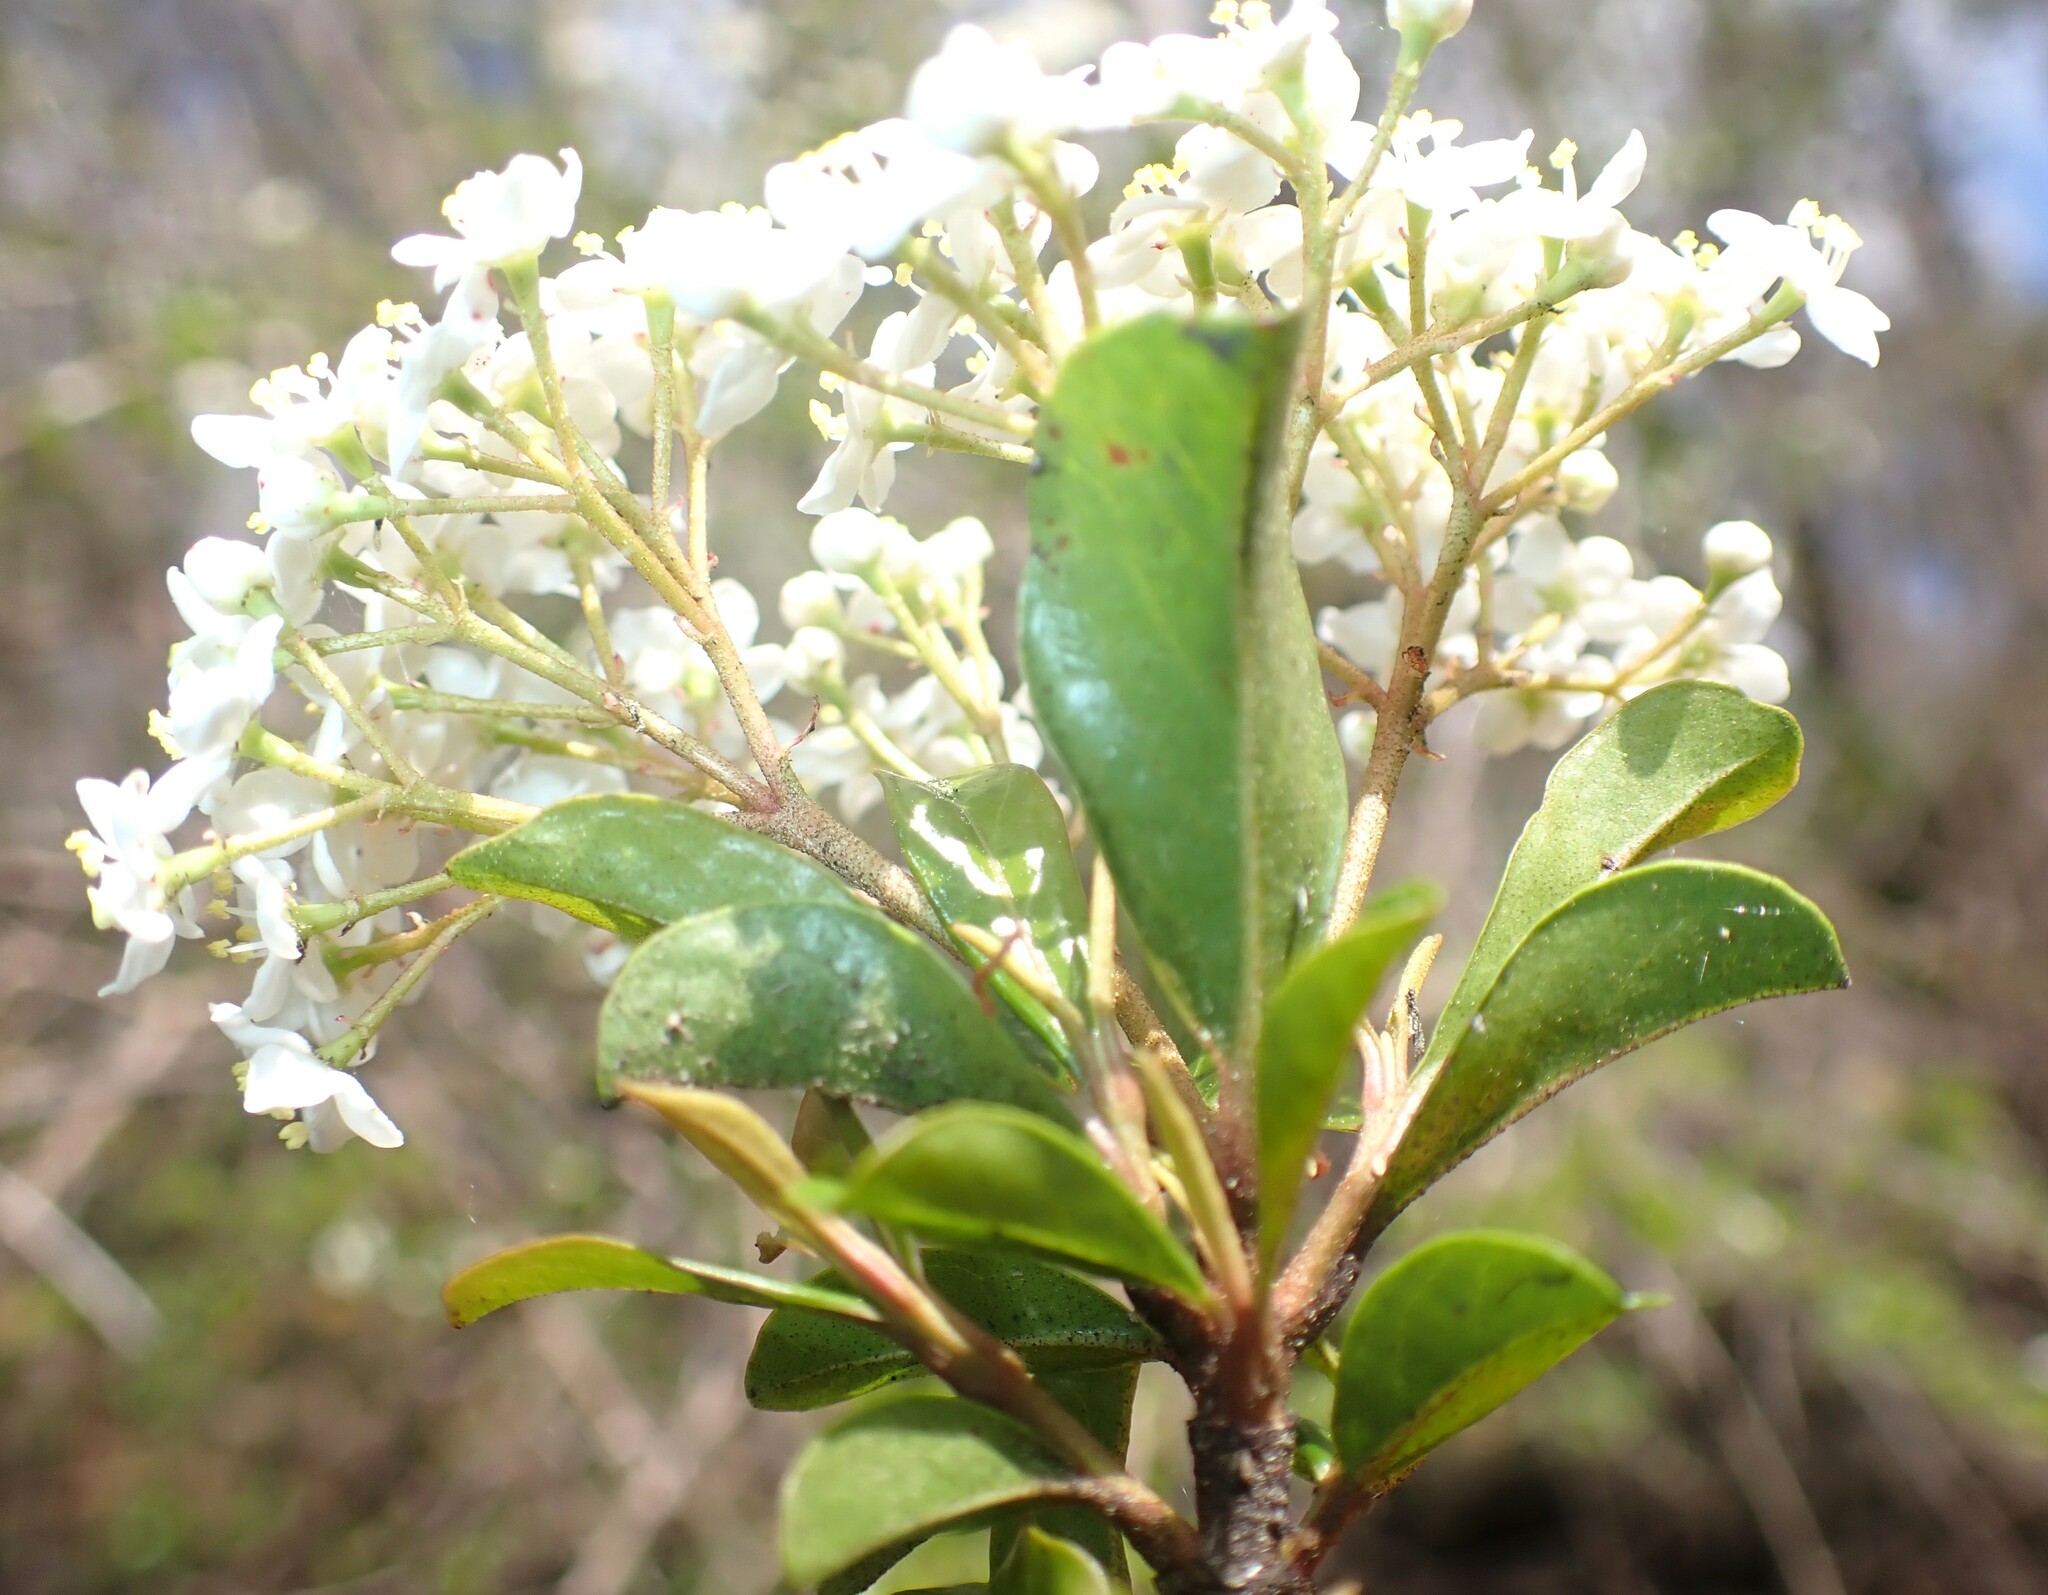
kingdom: Plantae
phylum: Tracheophyta
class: Magnoliopsida
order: Dipsacales
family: Viburnaceae
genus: Viburnum
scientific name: Viburnum obovatum
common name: Walter's viburnum
